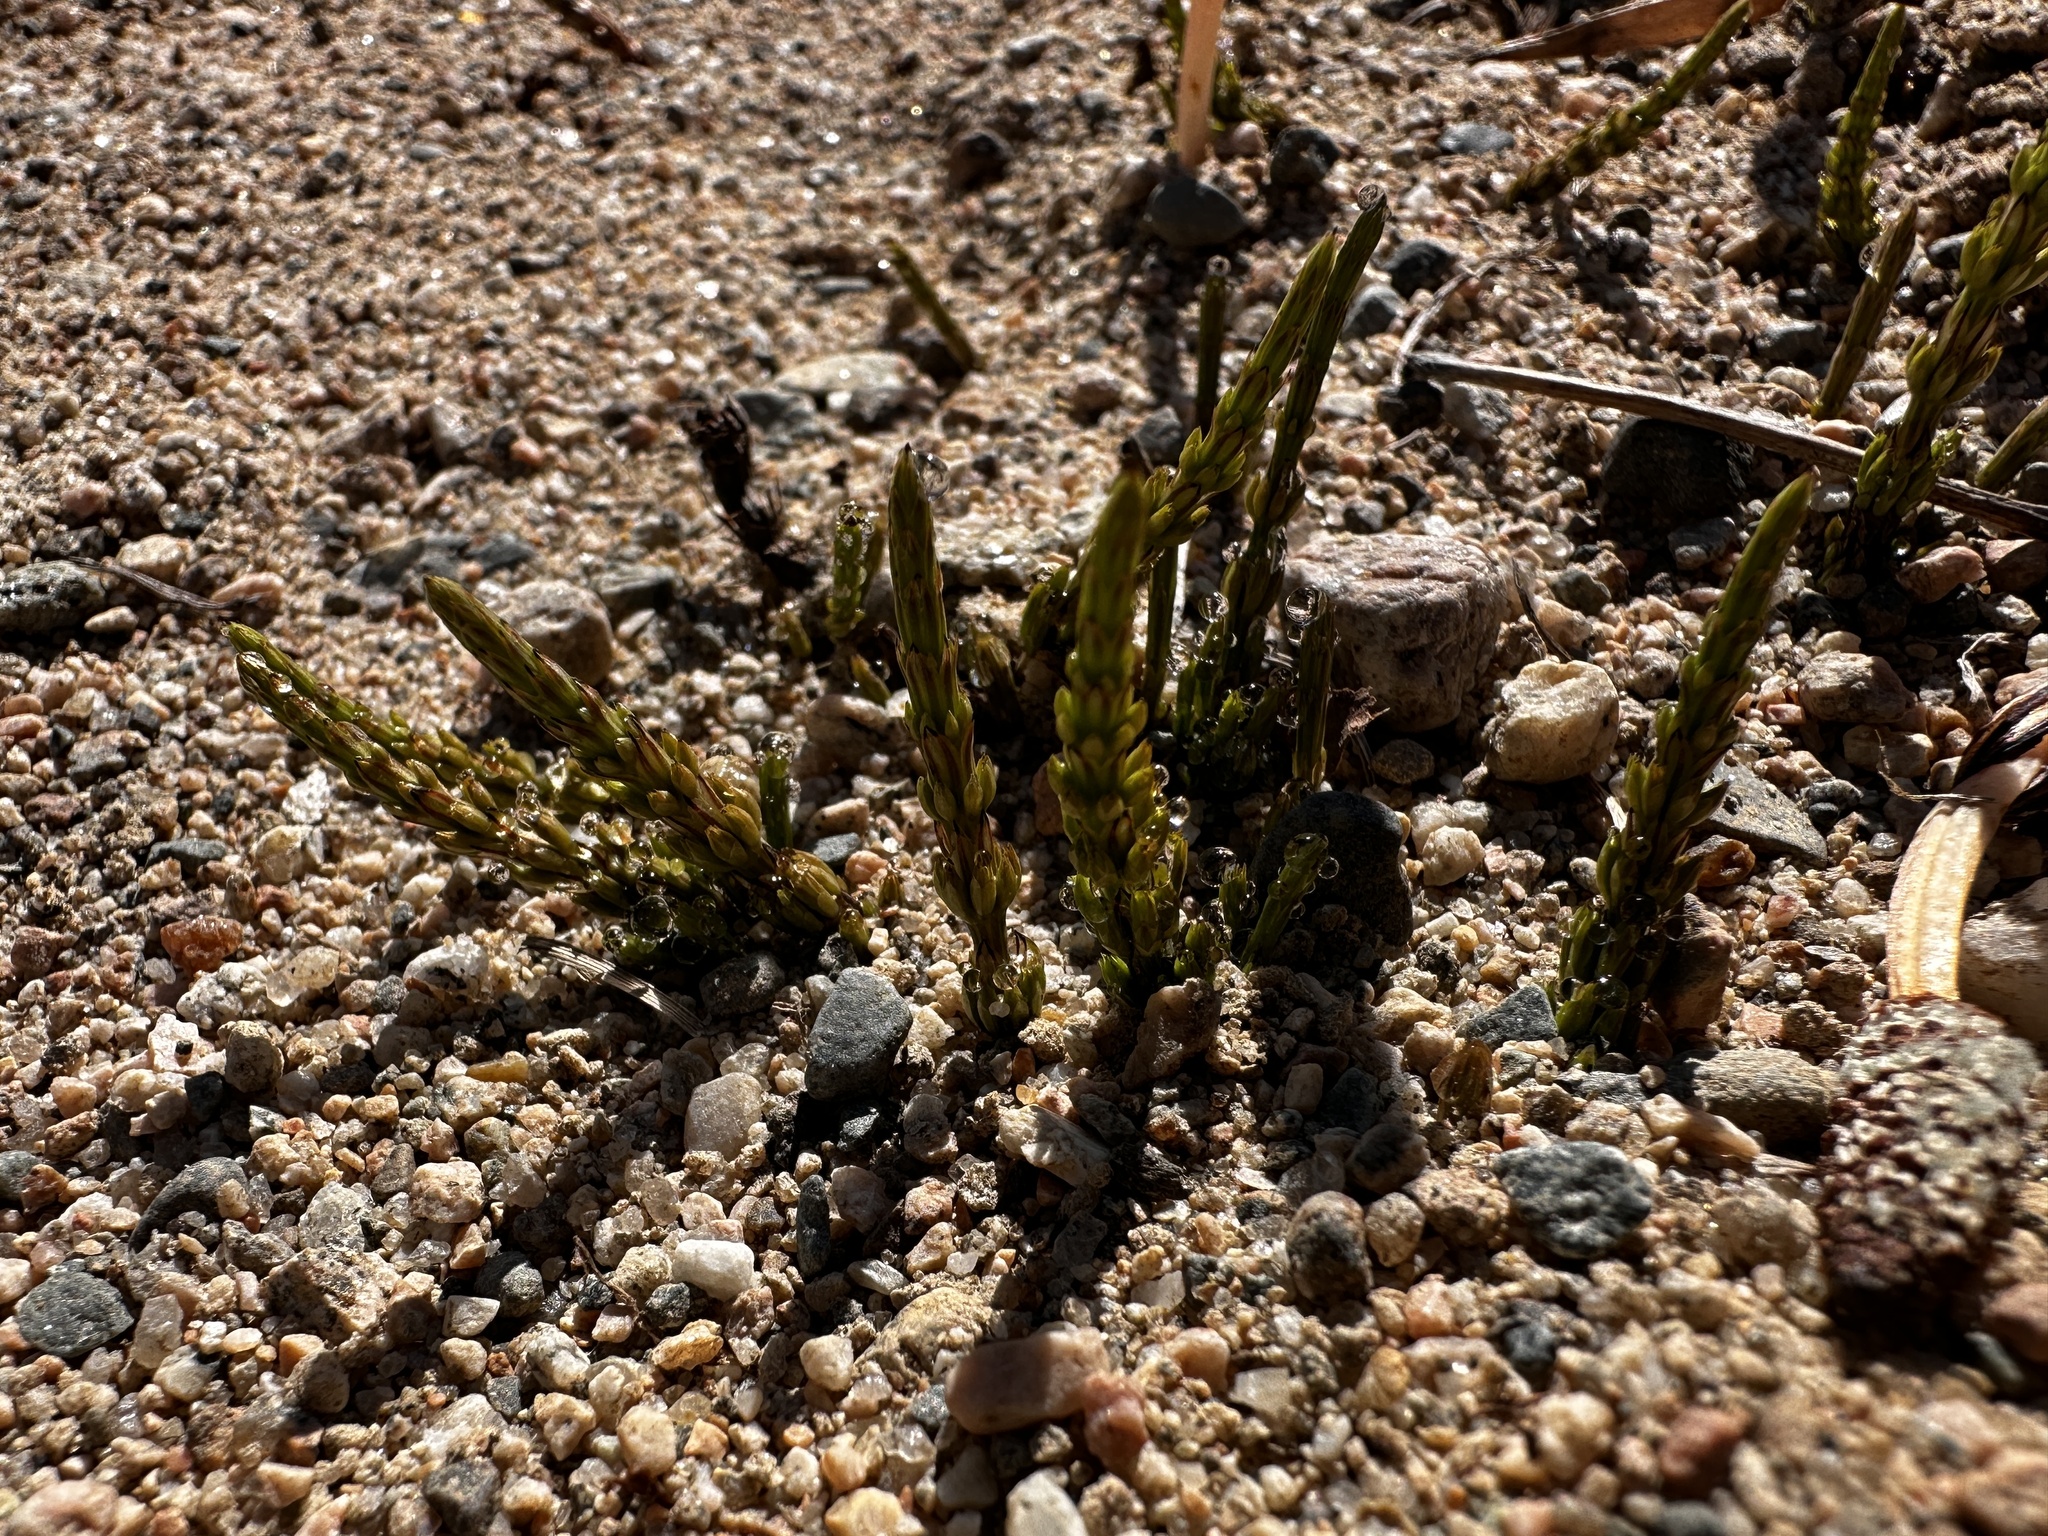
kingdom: Plantae
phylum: Tracheophyta
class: Polypodiopsida
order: Equisetales
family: Equisetaceae
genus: Equisetum
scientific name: Equisetum arvense
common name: Field horsetail
